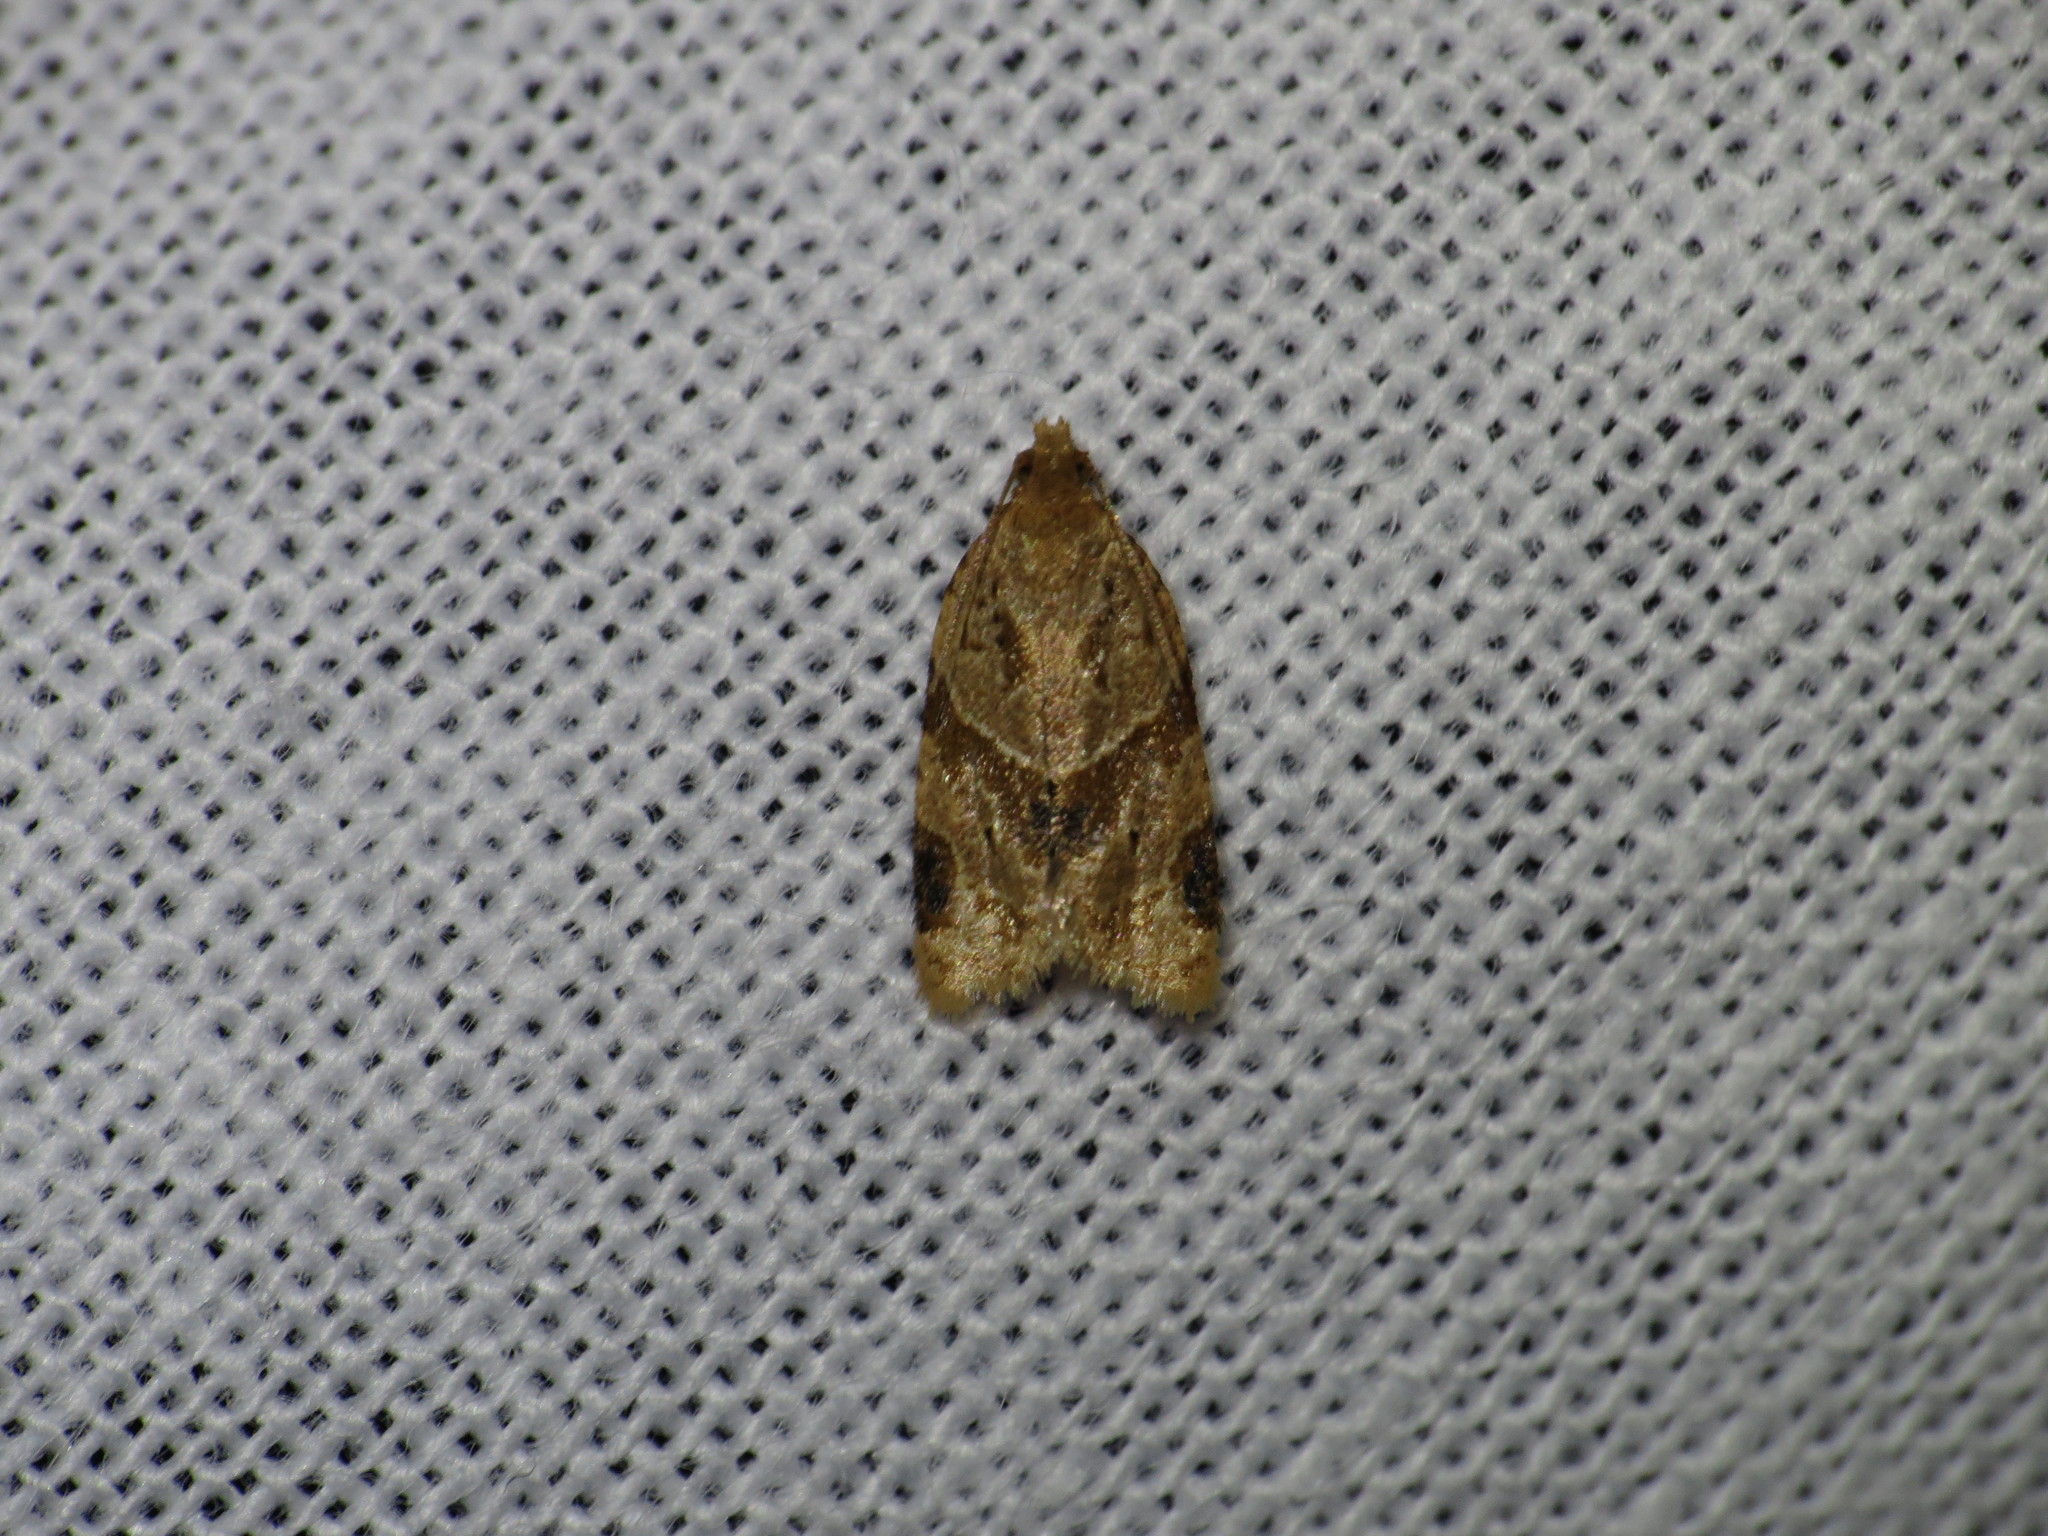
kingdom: Animalia
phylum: Arthropoda
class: Insecta
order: Lepidoptera
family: Tortricidae
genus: Clepsis
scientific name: Clepsis peritana
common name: Garden tortrix
